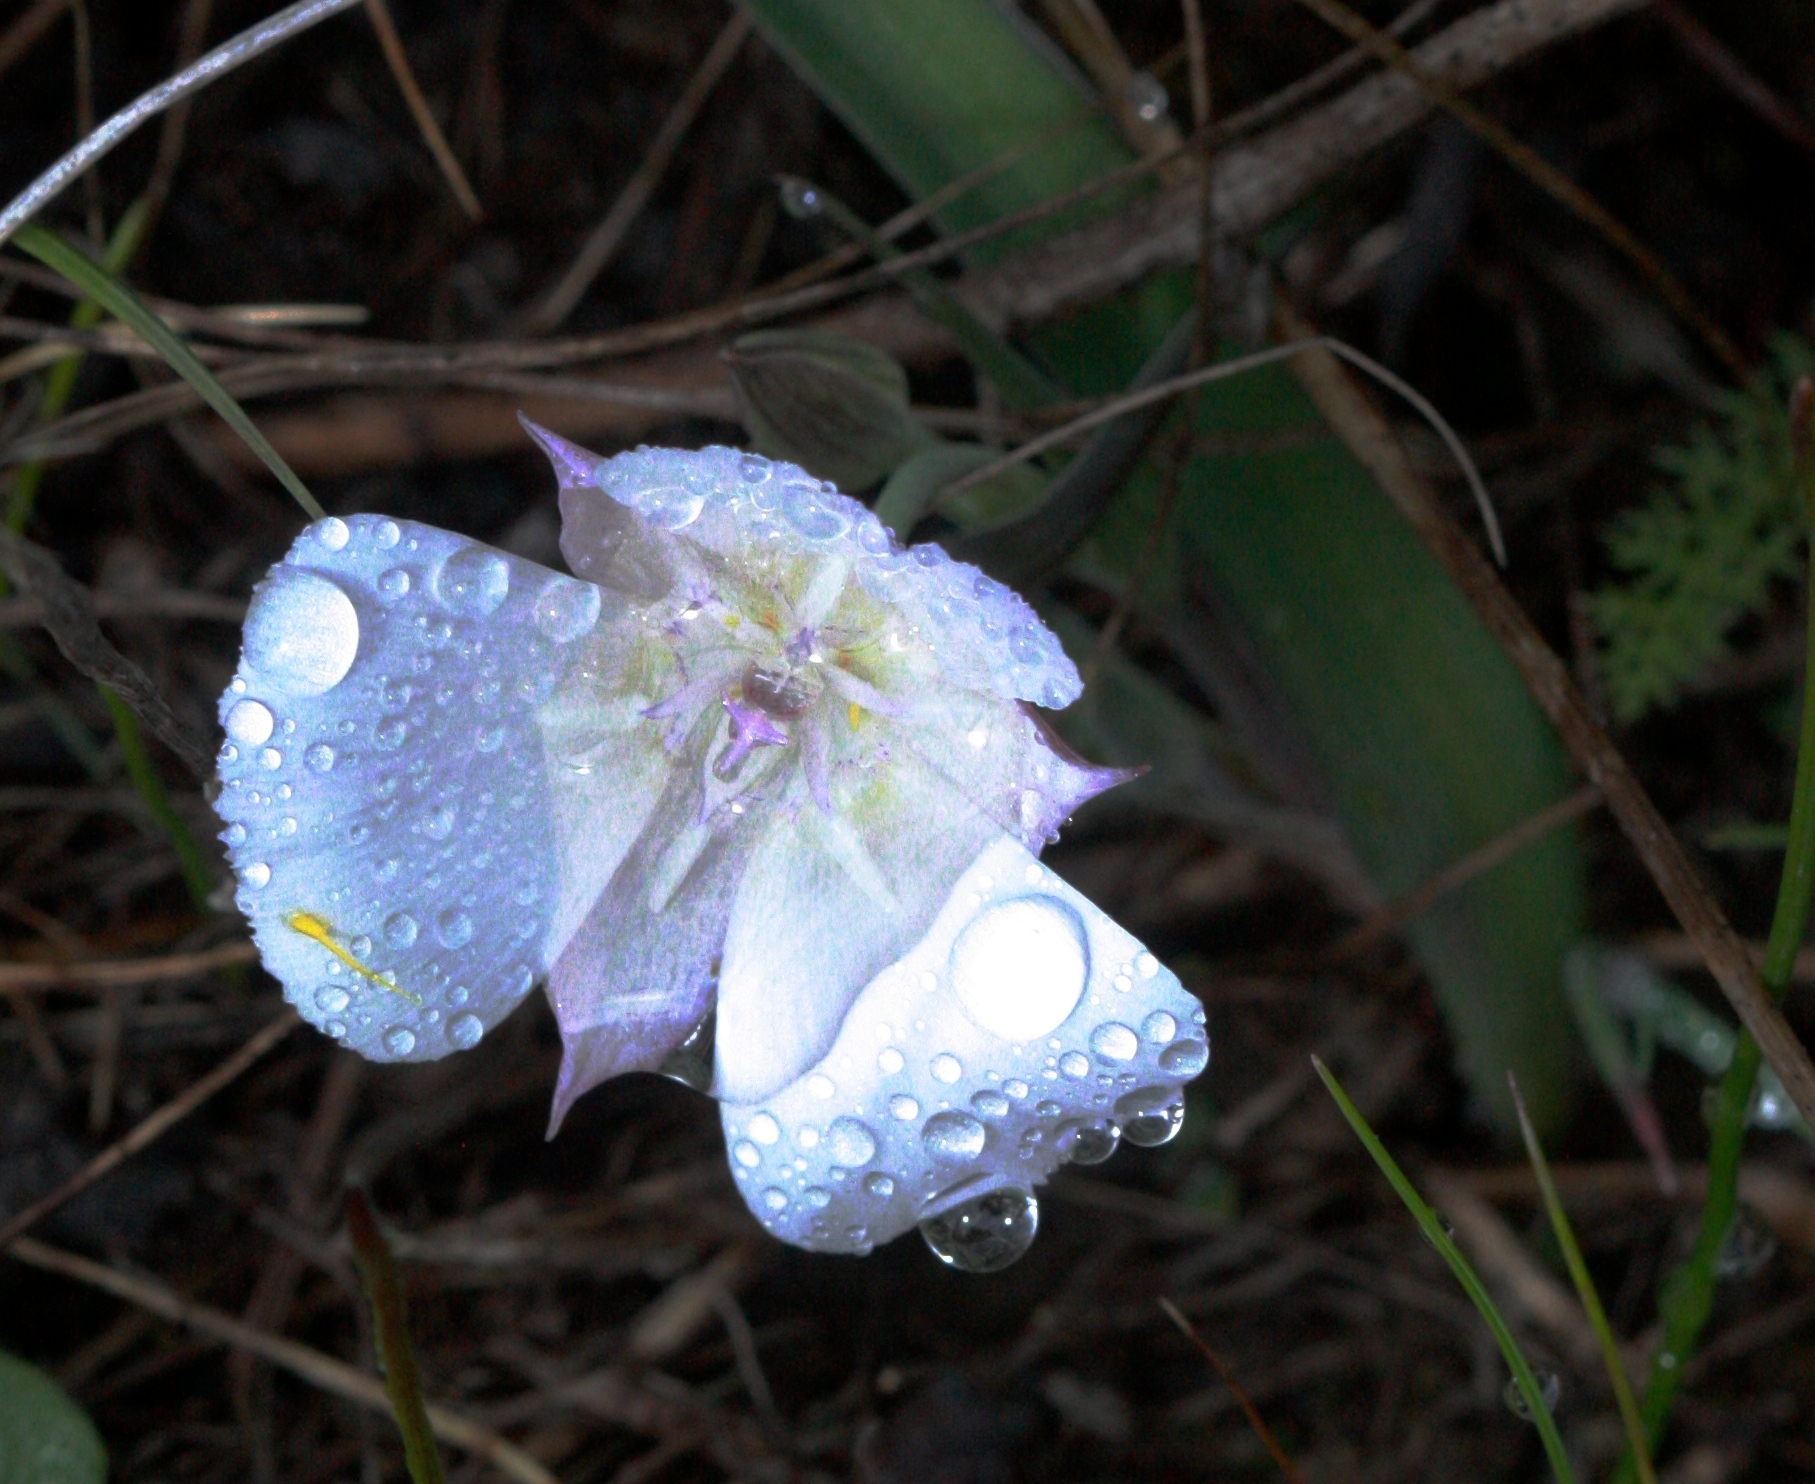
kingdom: Plantae
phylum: Tracheophyta
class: Liliopsida
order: Liliales
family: Liliaceae
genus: Calochortus
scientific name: Calochortus umbellatus
